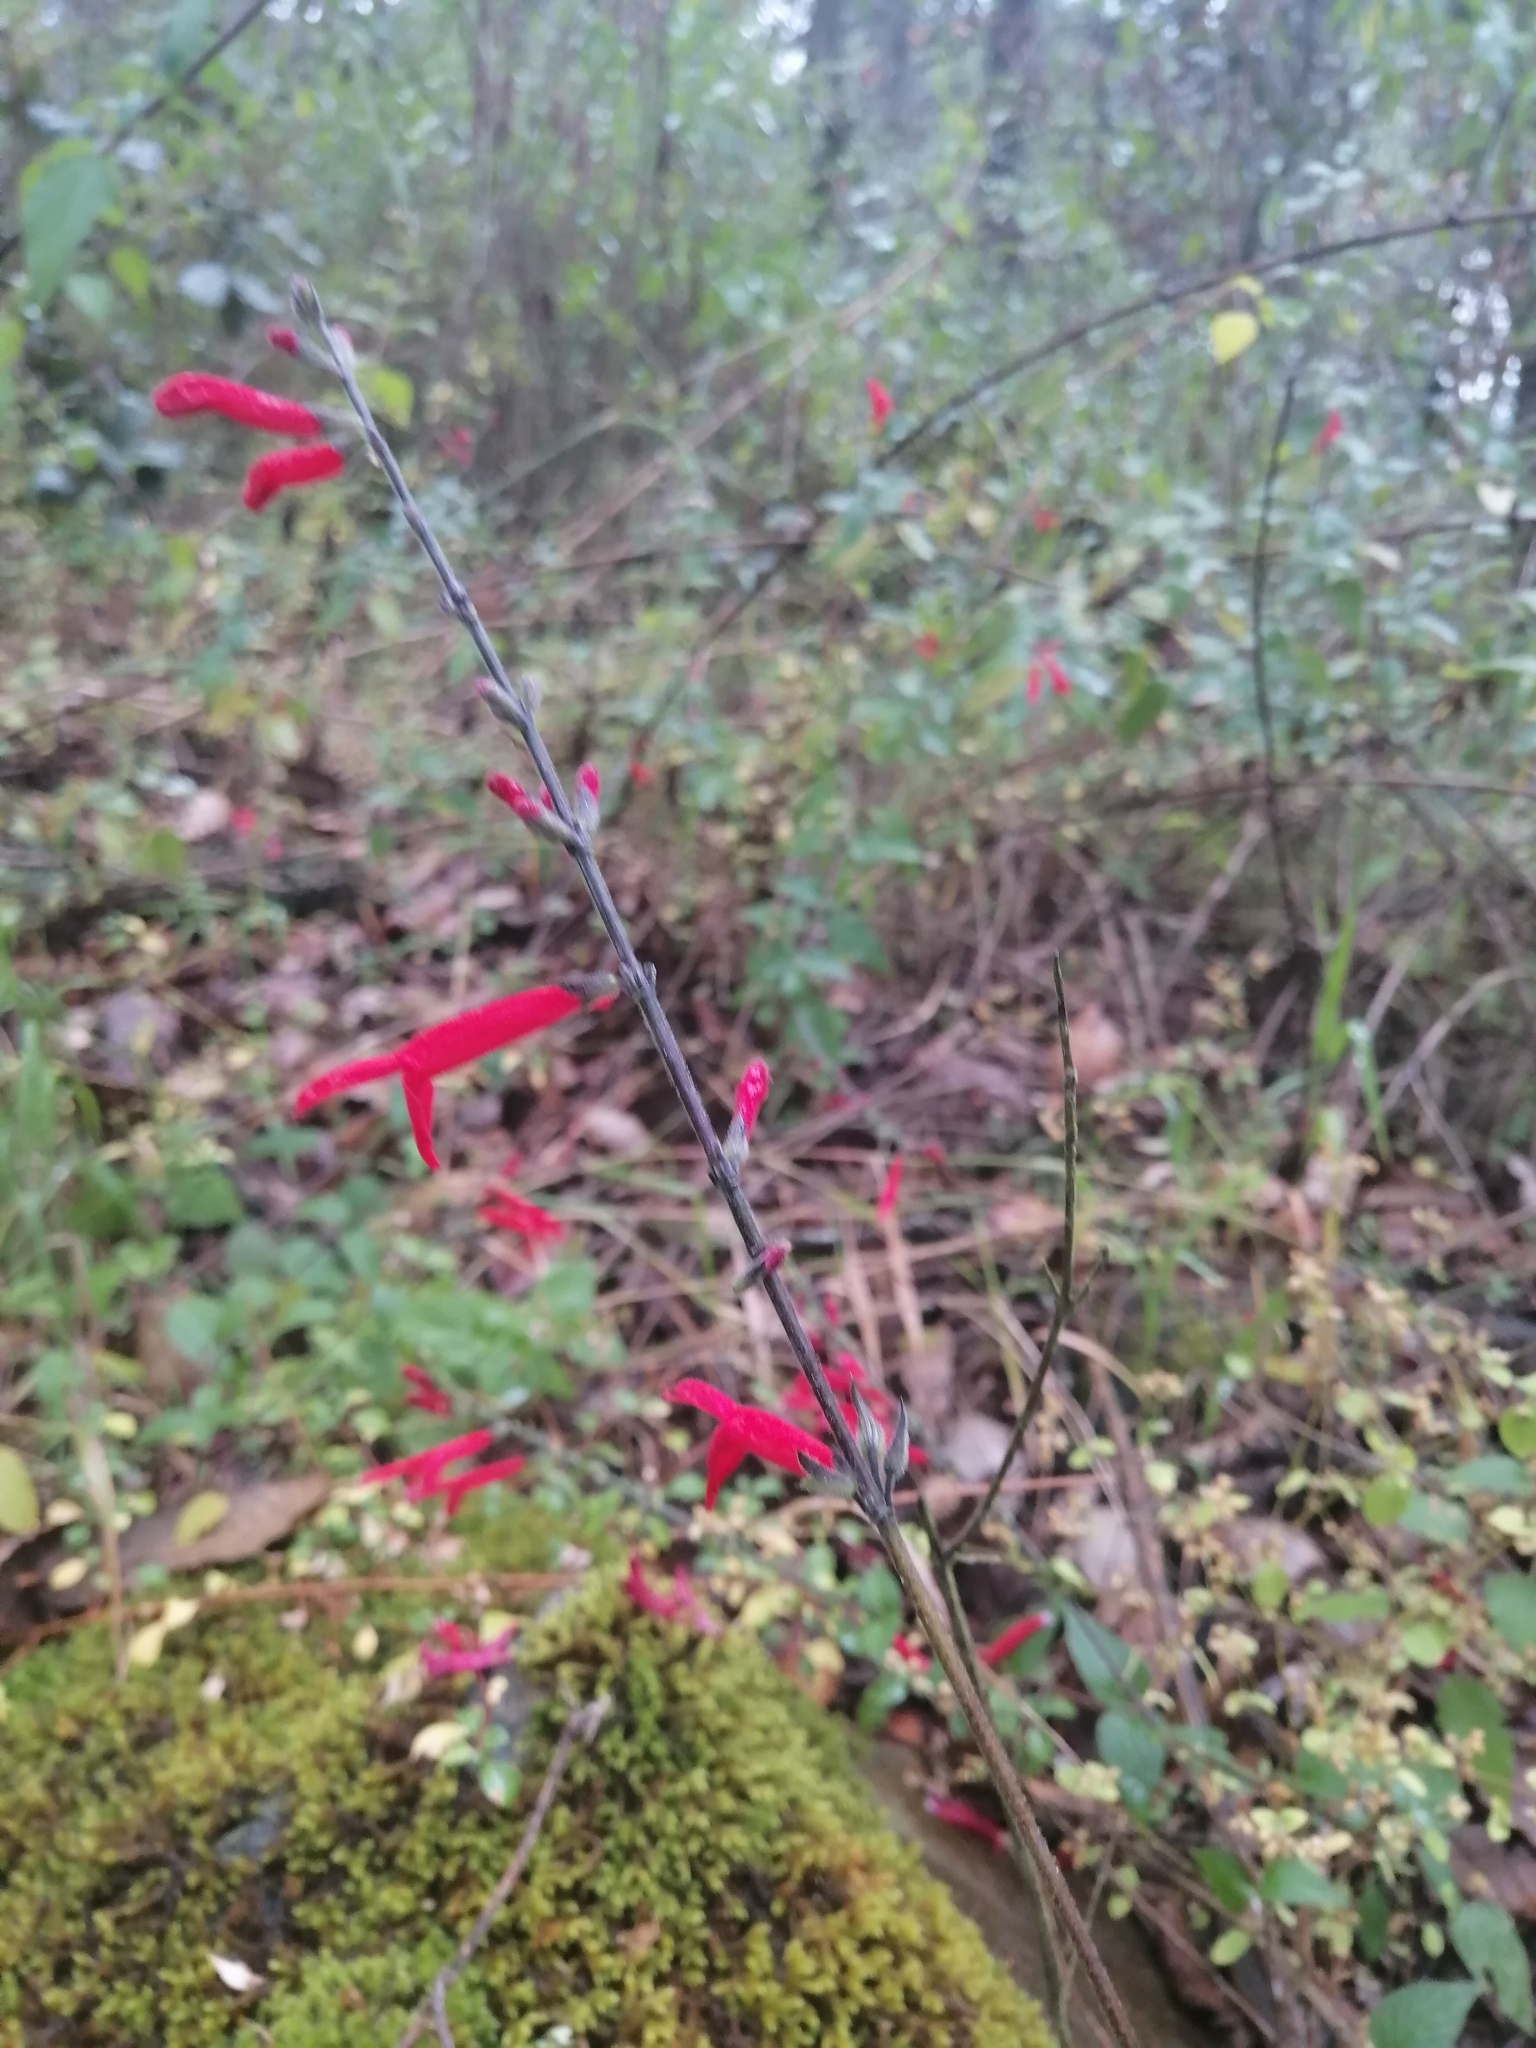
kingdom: Plantae
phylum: Tracheophyta
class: Magnoliopsida
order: Lamiales
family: Lamiaceae
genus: Salvia
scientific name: Salvia elegans
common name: Pineapple sage
